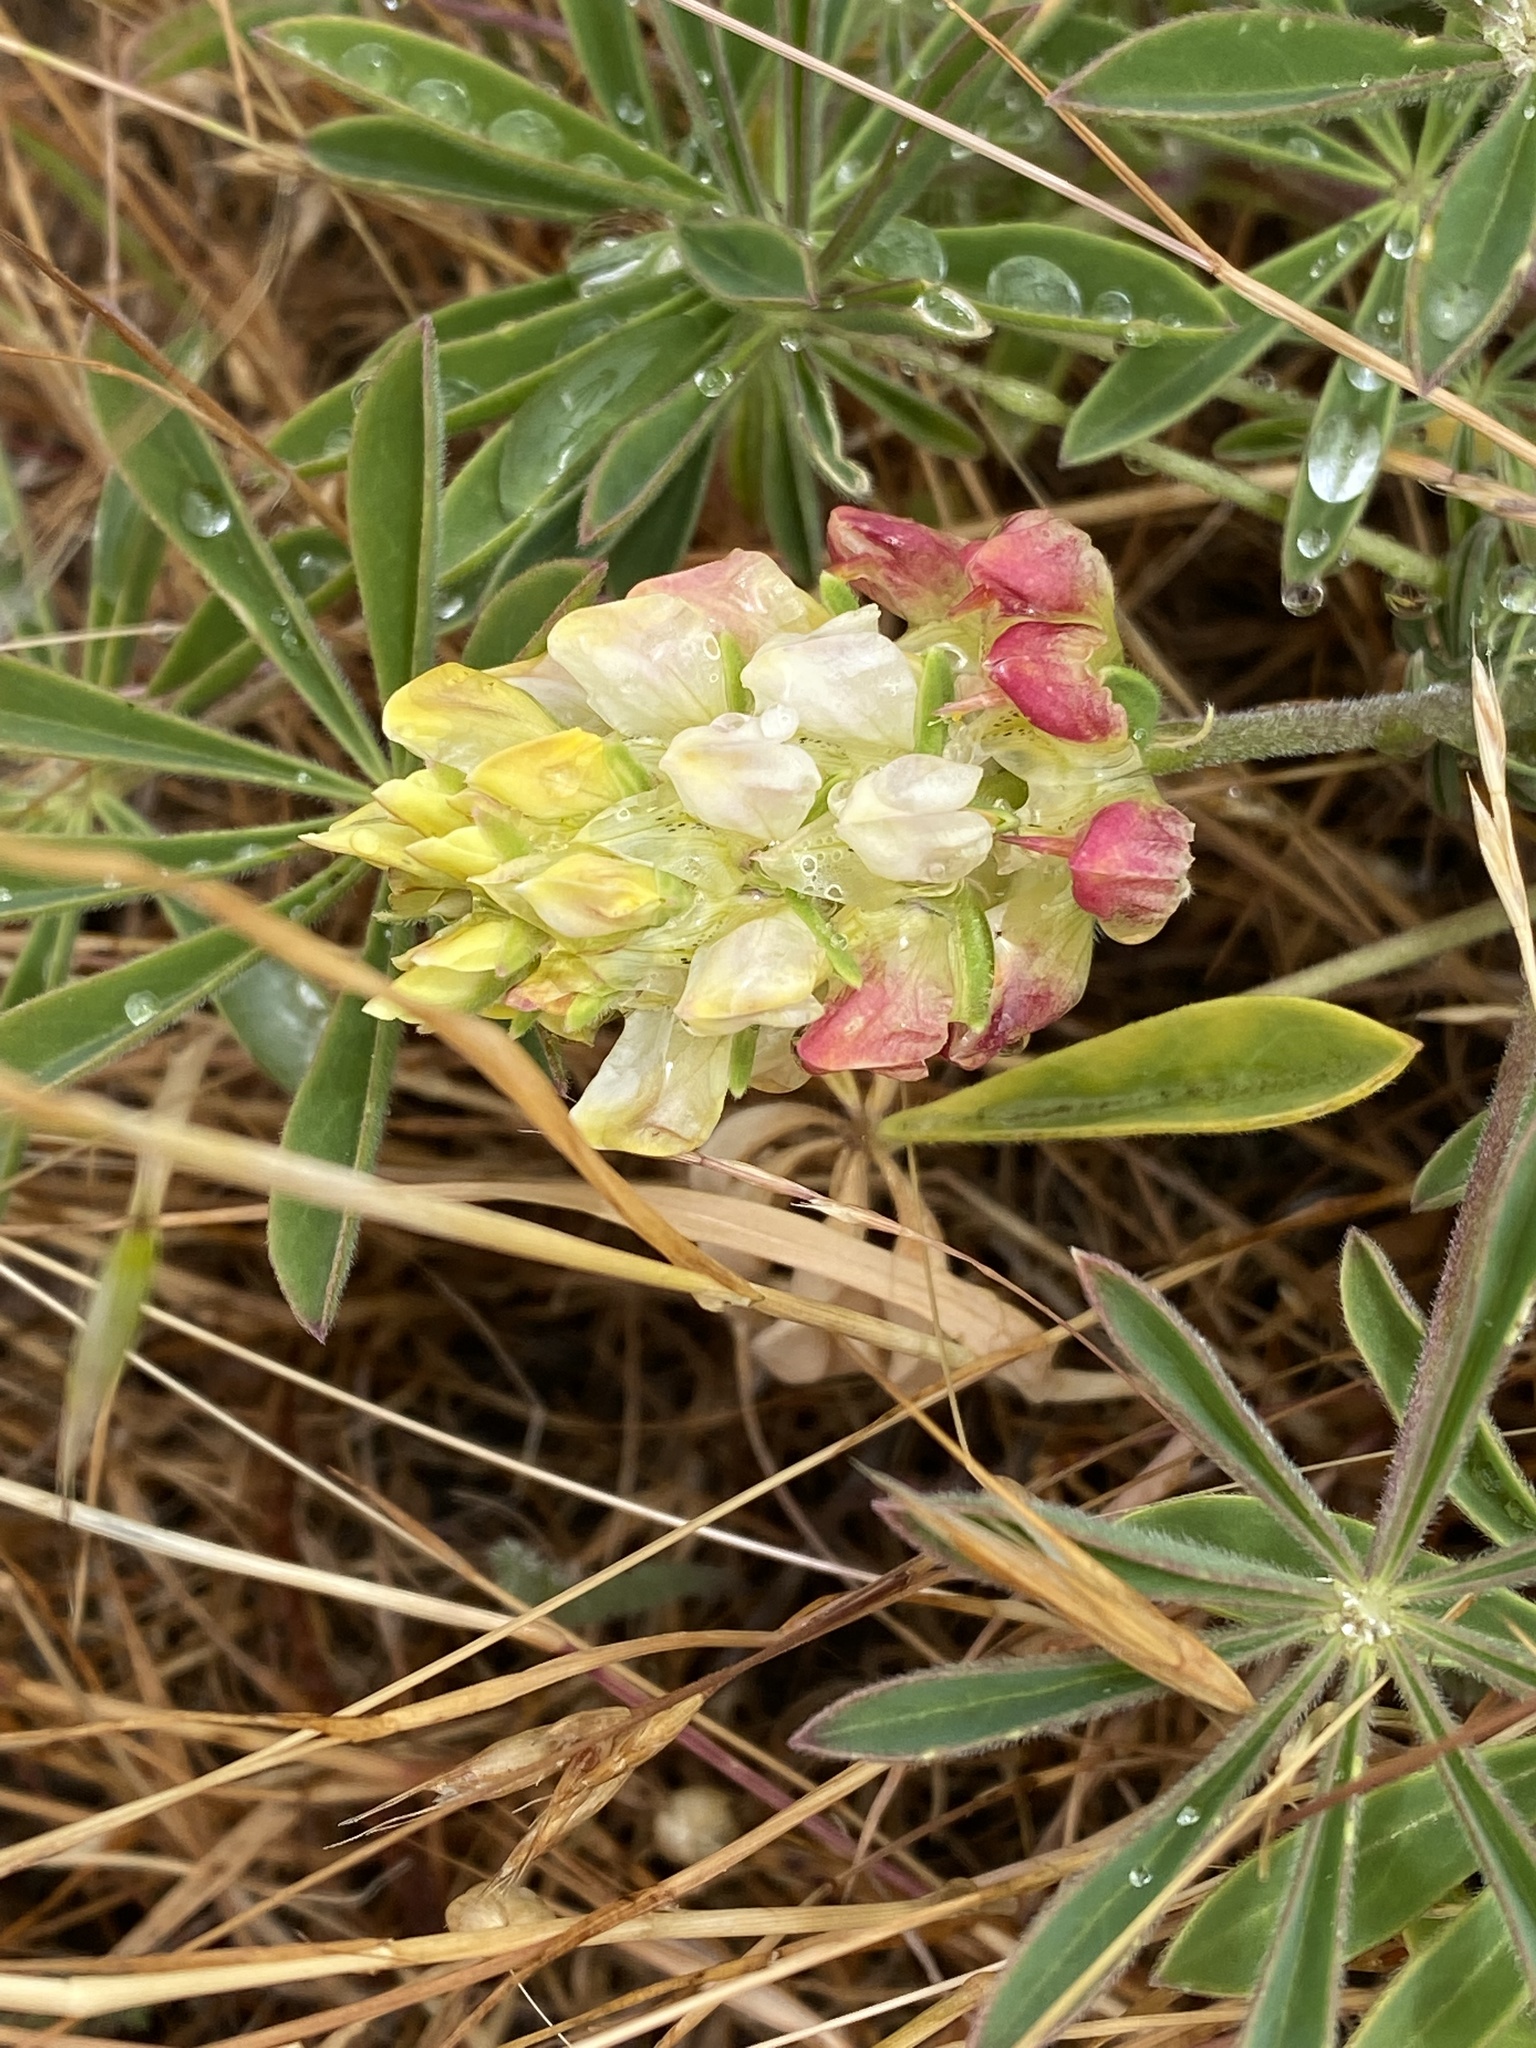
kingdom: Plantae
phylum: Tracheophyta
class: Magnoliopsida
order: Fabales
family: Fabaceae
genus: Lupinus
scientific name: Lupinus microcarpus
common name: Chick lupine
